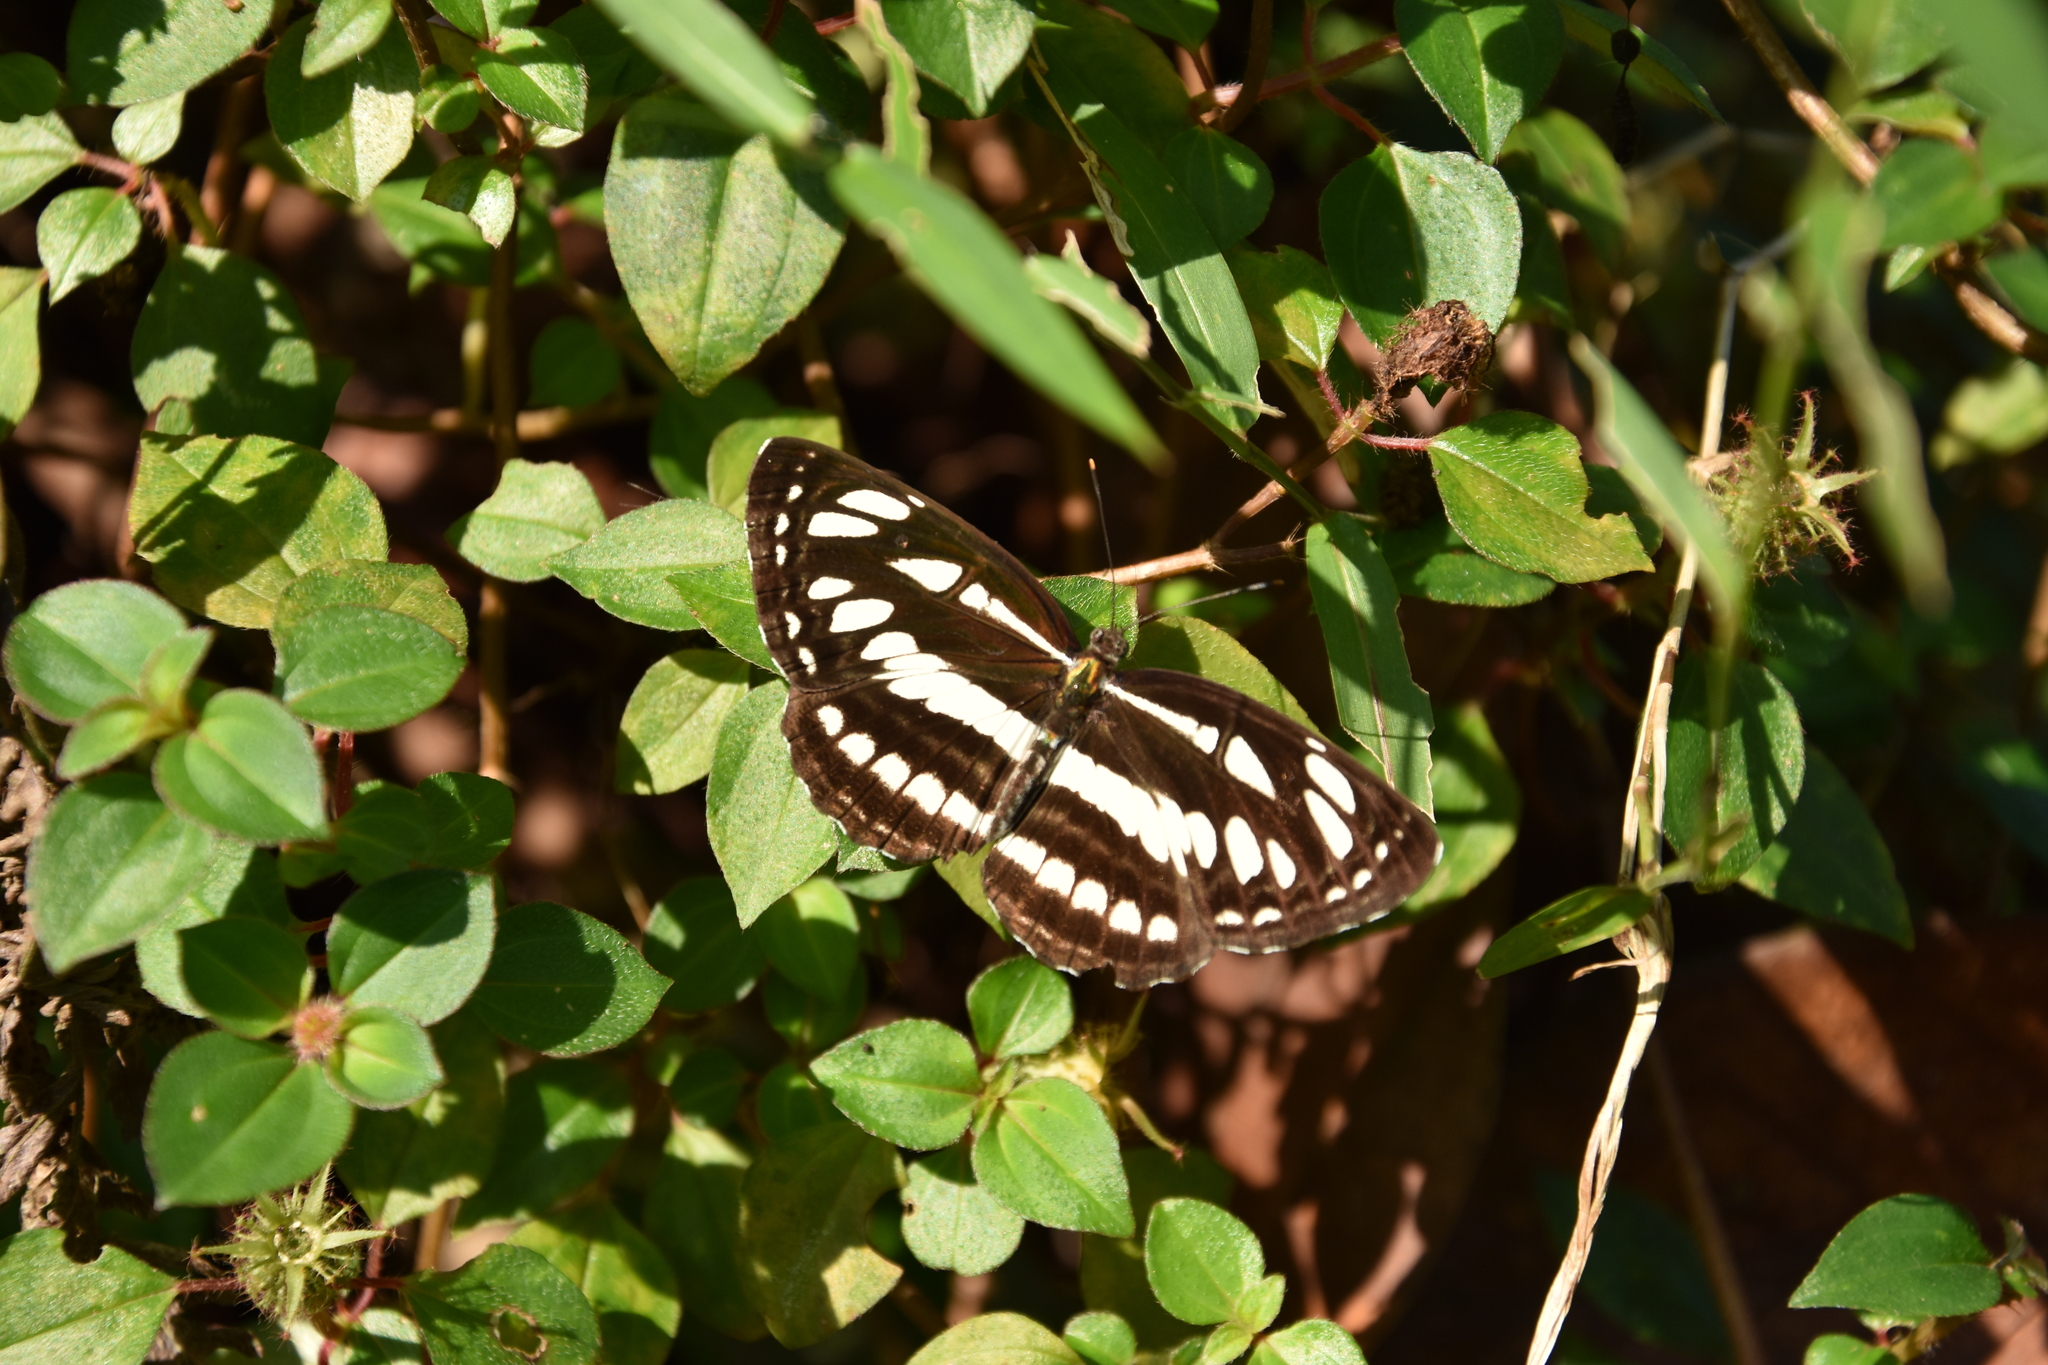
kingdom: Animalia
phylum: Arthropoda
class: Insecta
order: Lepidoptera
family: Nymphalidae
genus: Neptis
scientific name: Neptis hylas
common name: Common sailer
